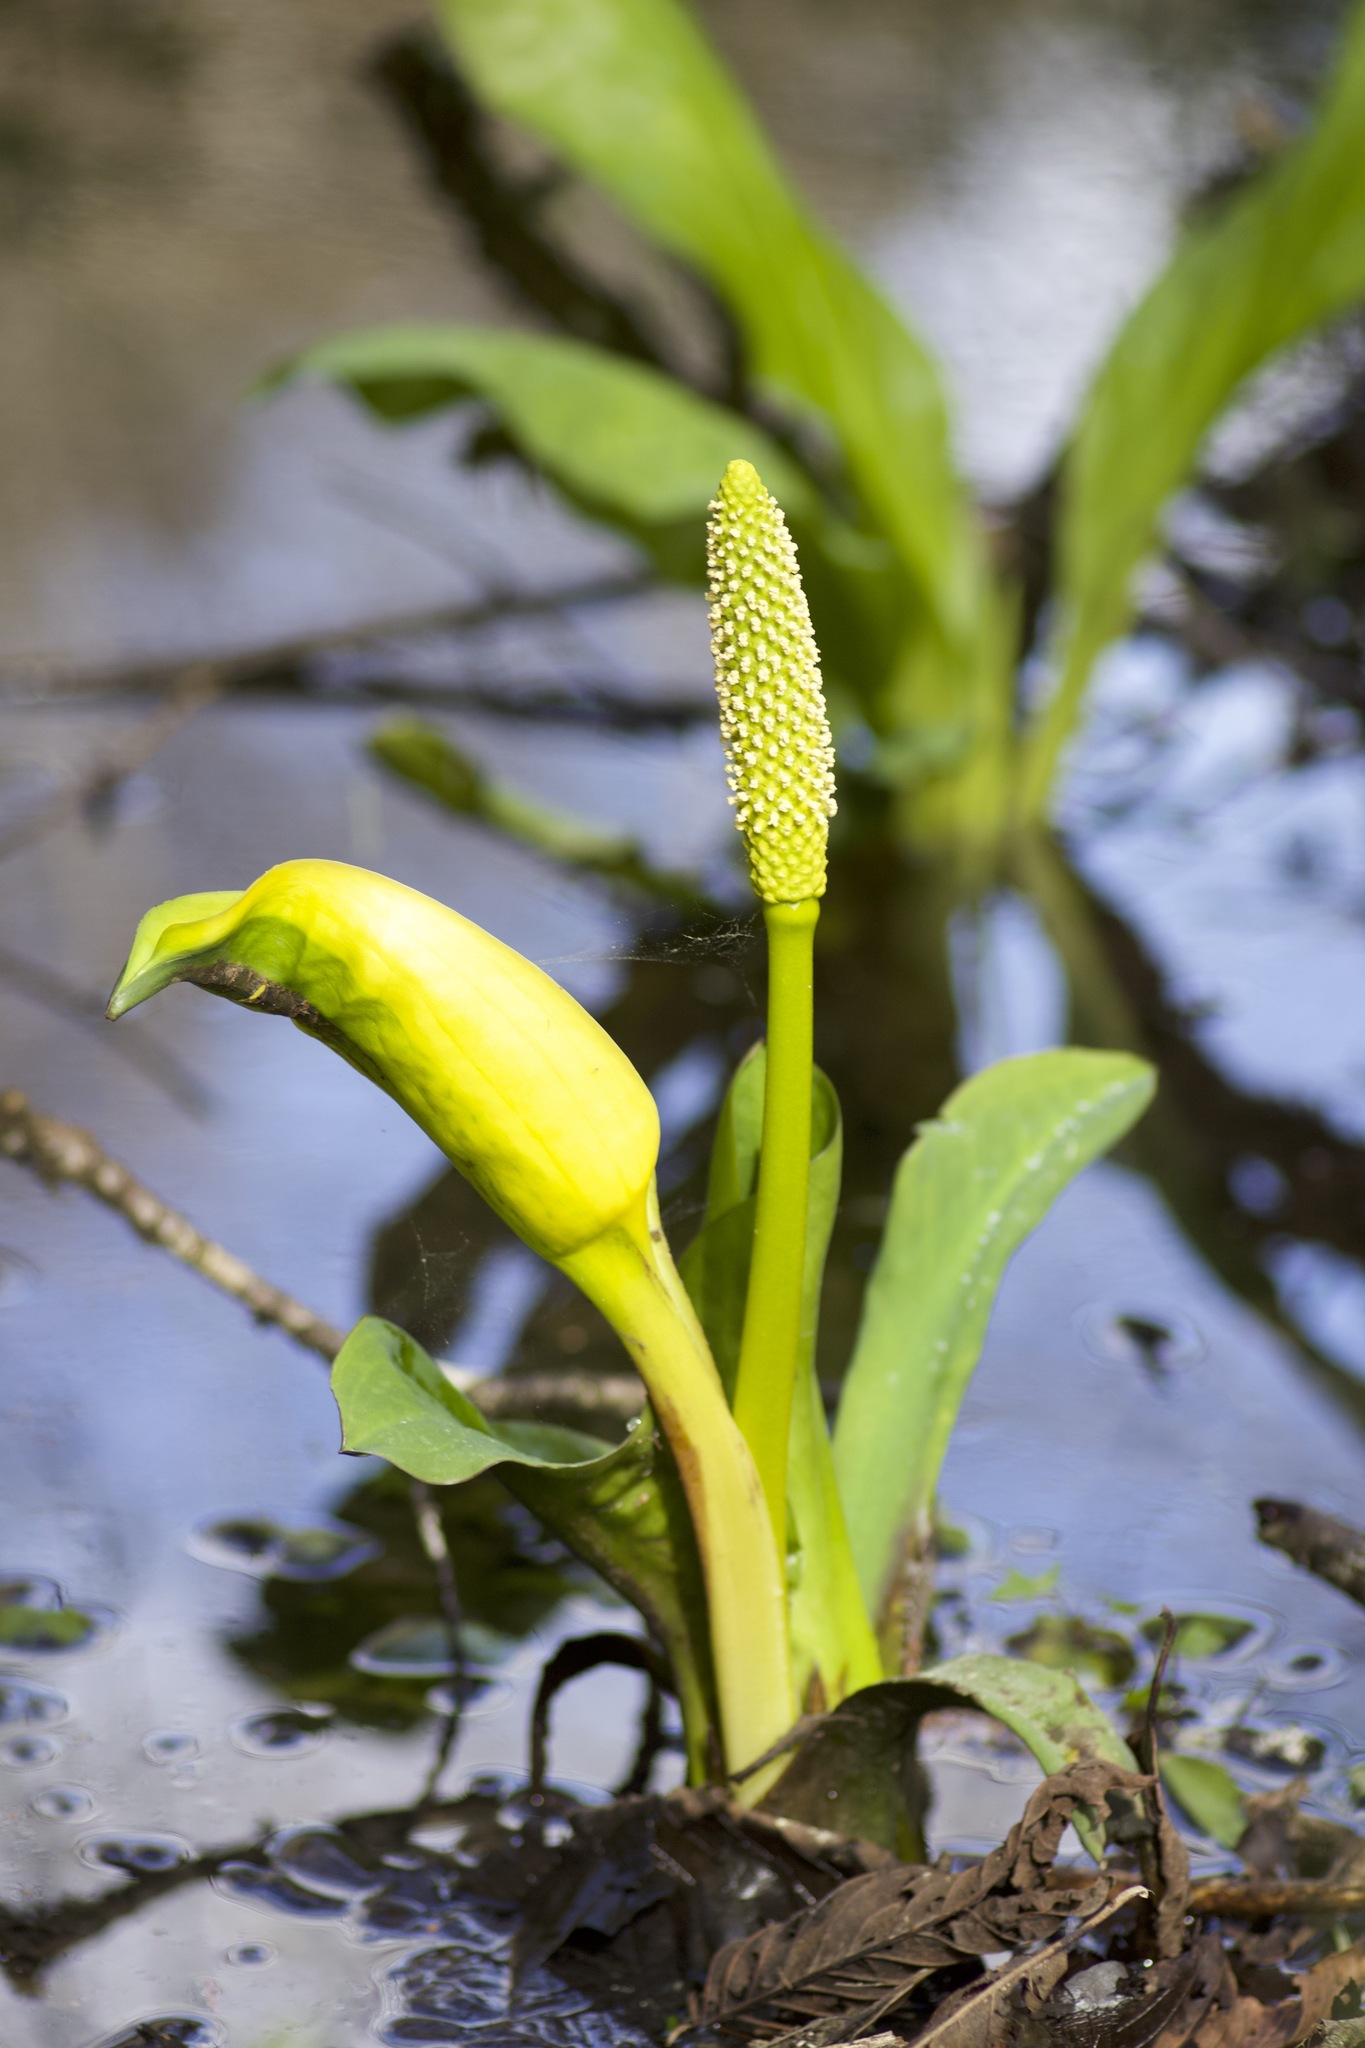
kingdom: Plantae
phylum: Tracheophyta
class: Liliopsida
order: Alismatales
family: Araceae
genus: Lysichiton
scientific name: Lysichiton americanus
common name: American skunk cabbage
